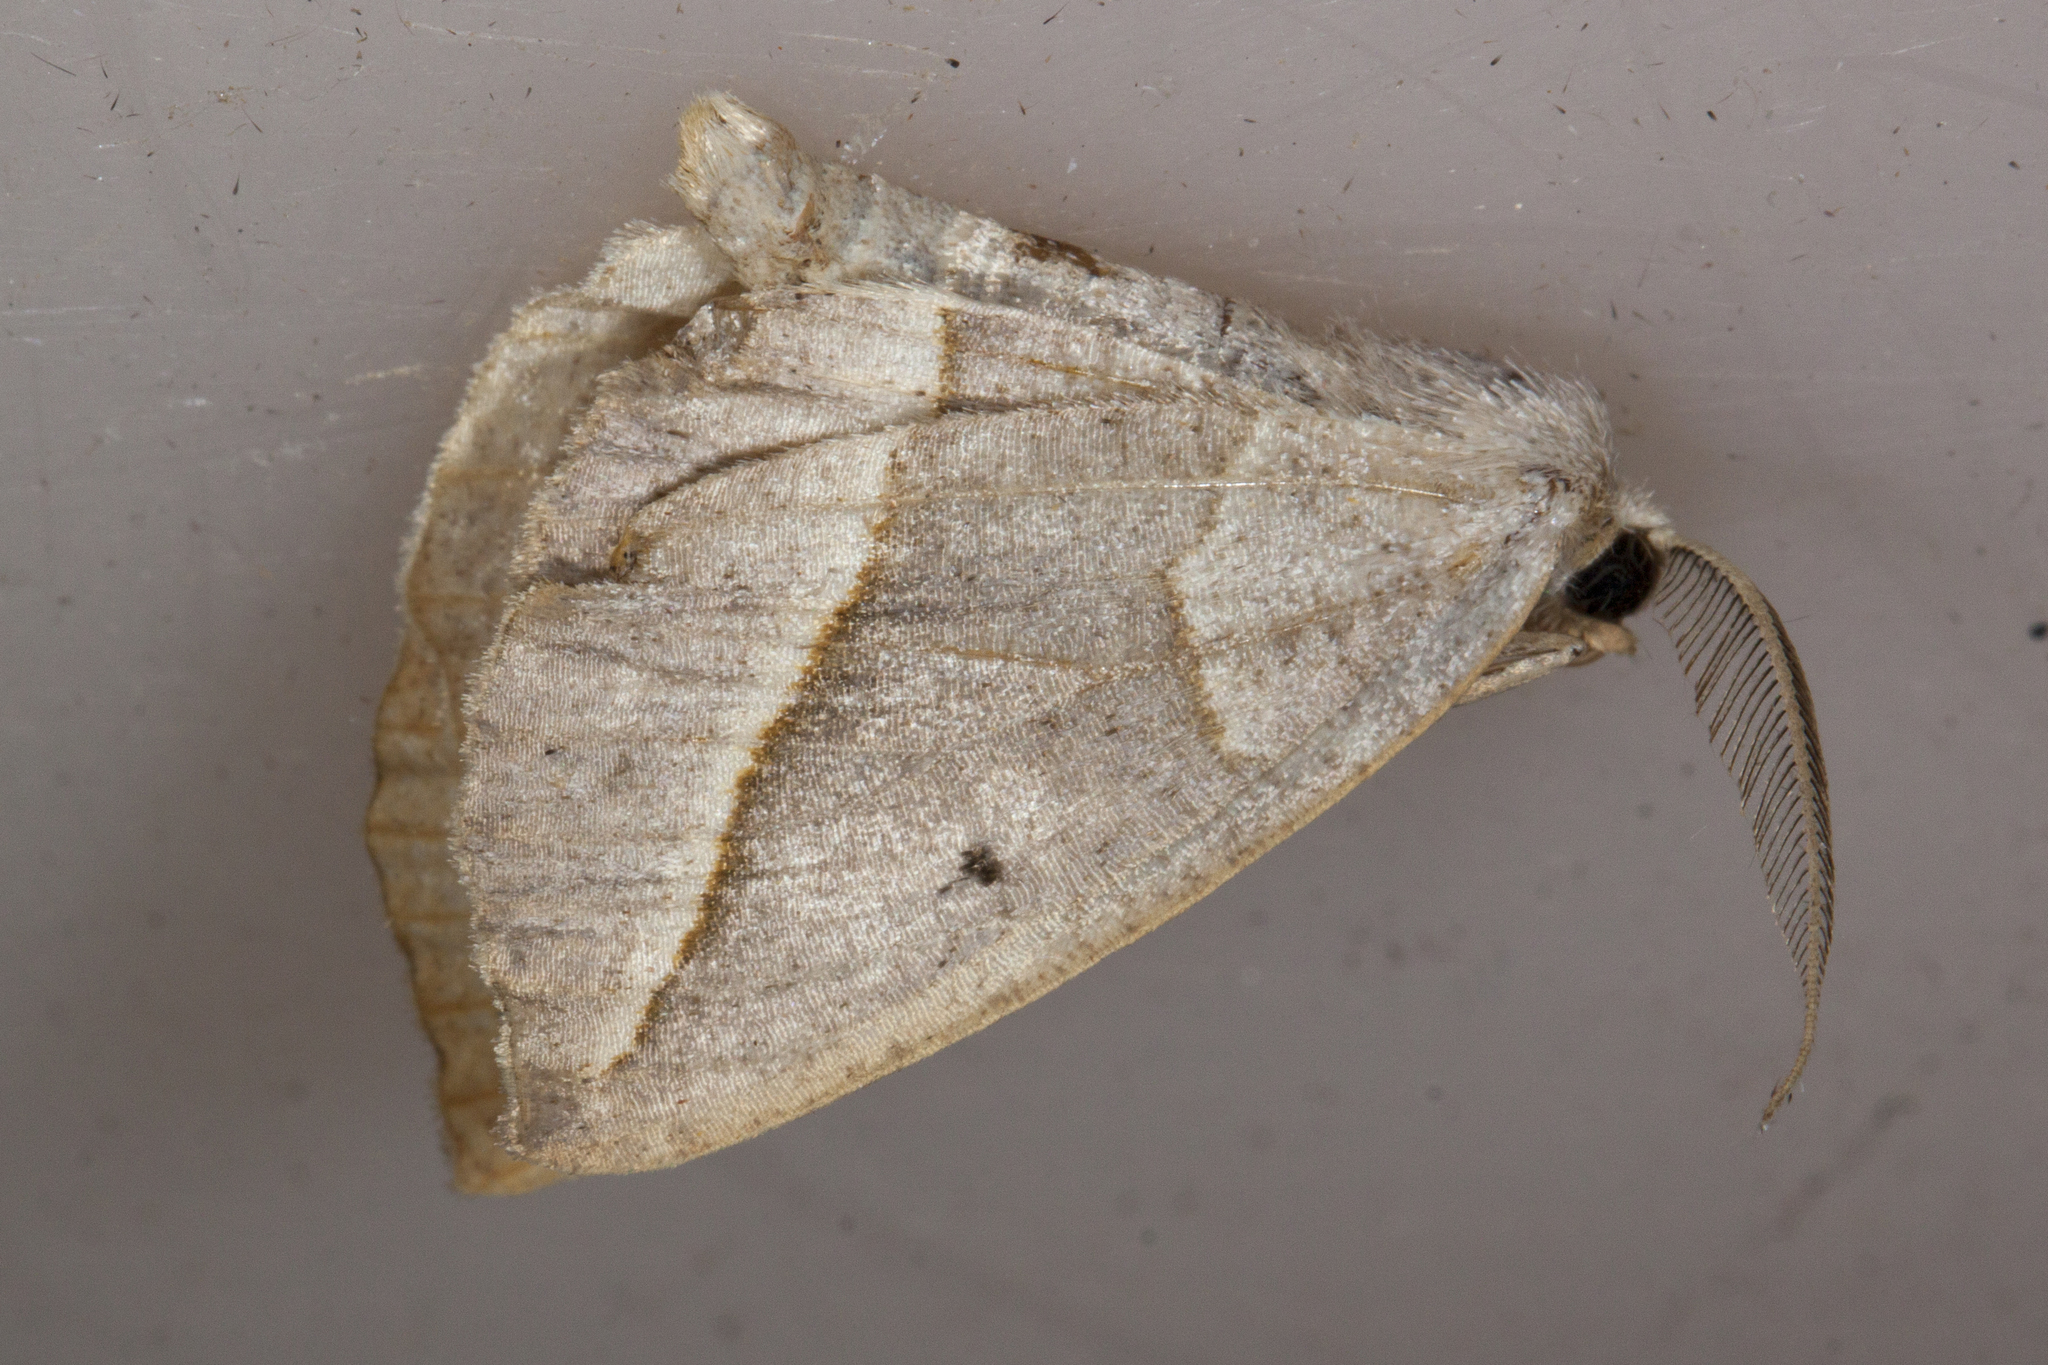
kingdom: Animalia
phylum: Arthropoda
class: Insecta
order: Lepidoptera
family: Geometridae
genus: Eusarca
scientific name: Eusarca confusaria
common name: Confused eusarca
